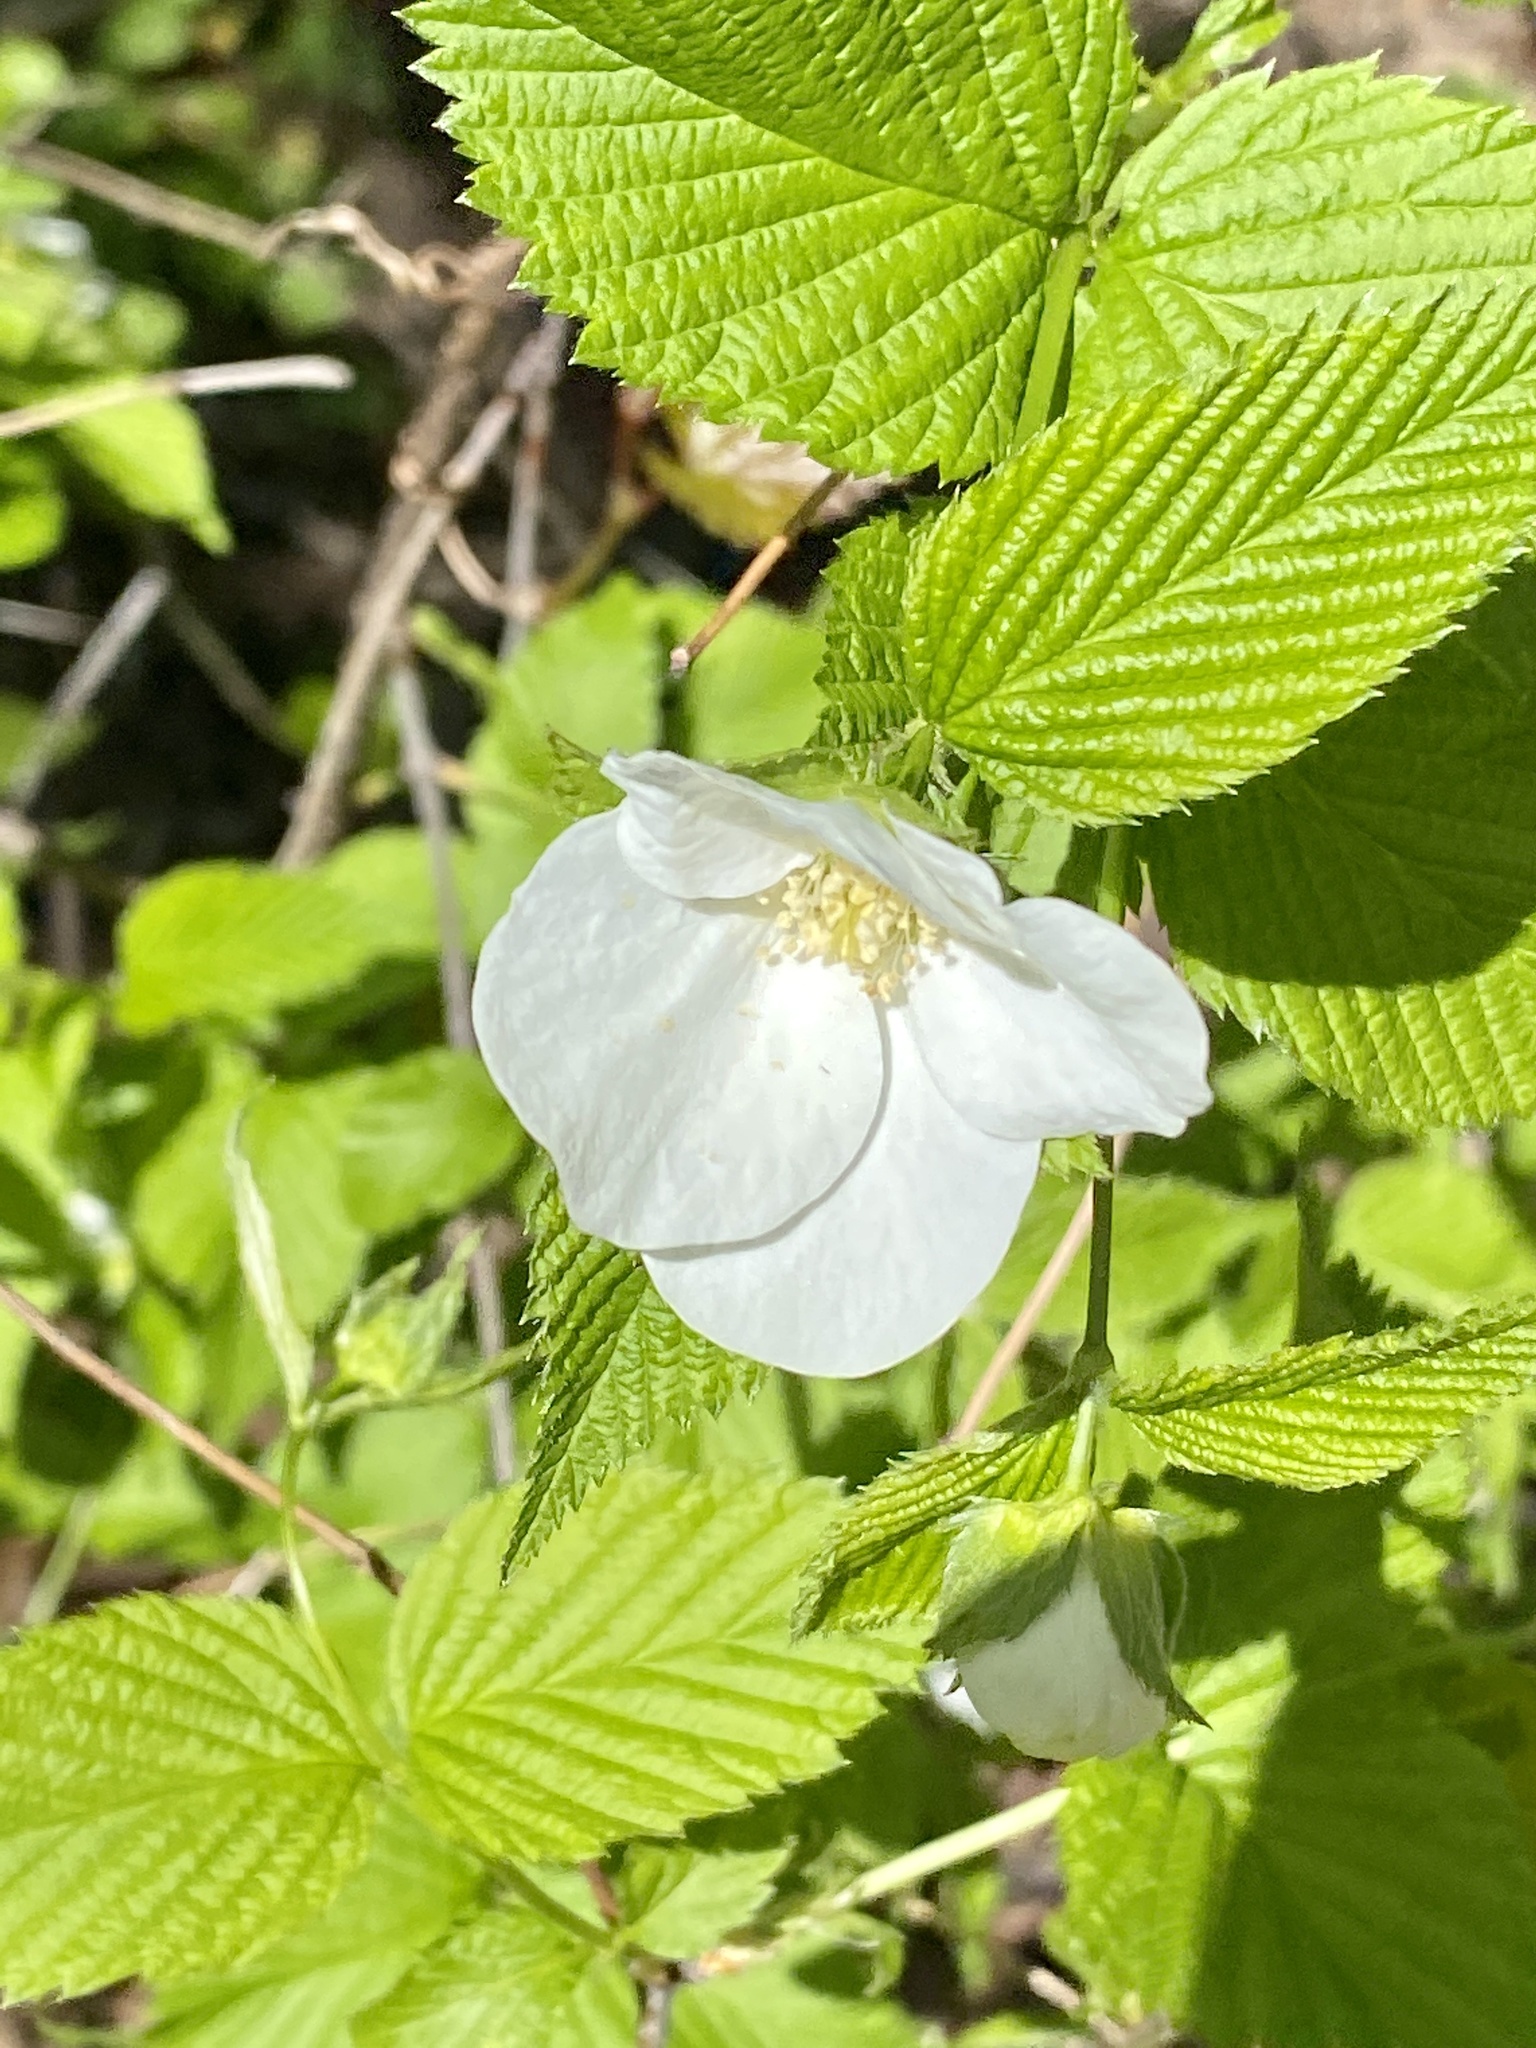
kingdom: Plantae
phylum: Tracheophyta
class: Magnoliopsida
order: Rosales
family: Rosaceae
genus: Rhodotypos
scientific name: Rhodotypos scandens
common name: Jetbead
